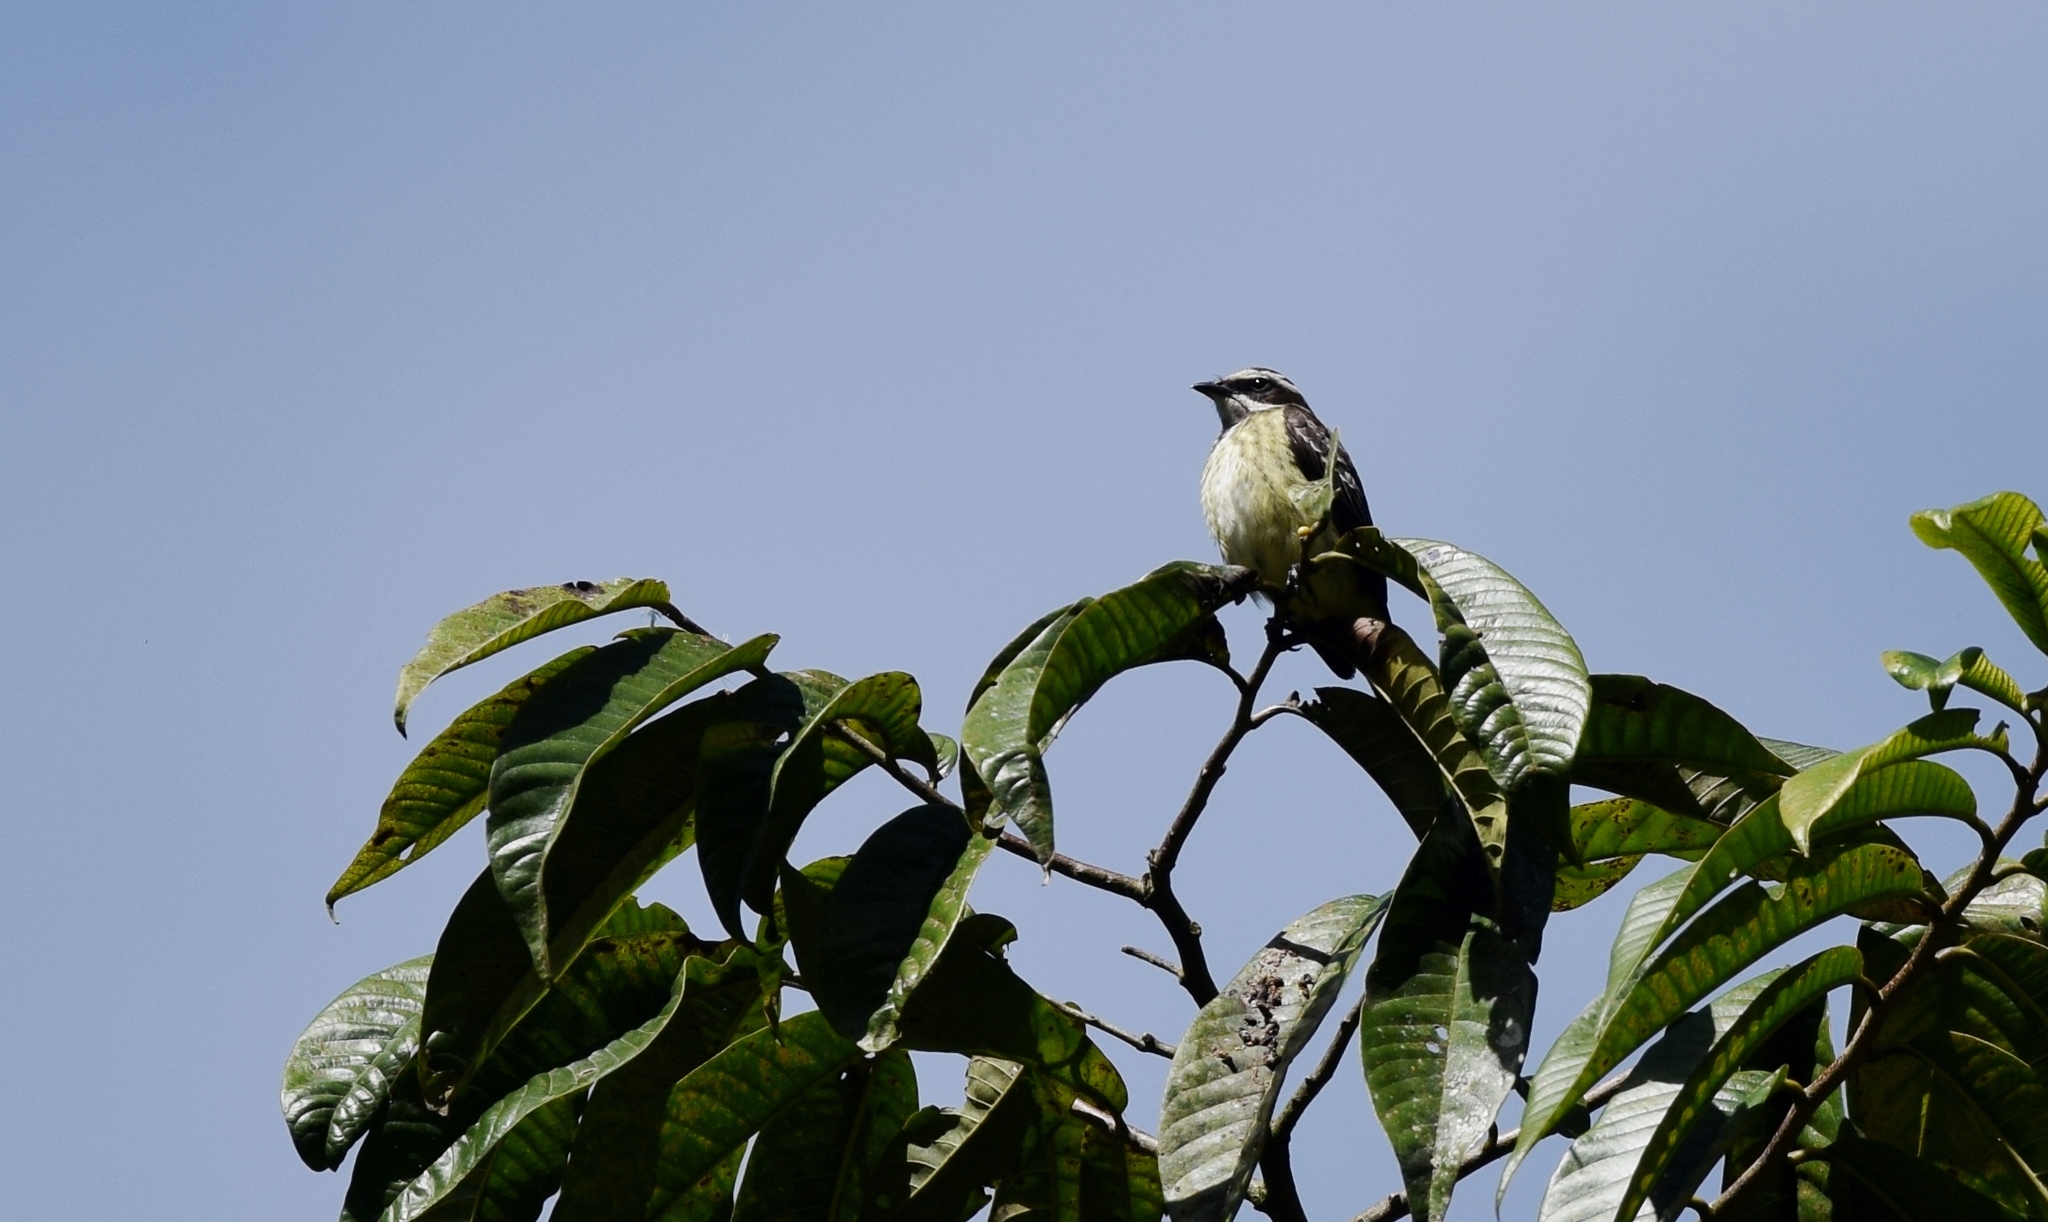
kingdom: Animalia
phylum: Chordata
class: Aves
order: Passeriformes
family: Tyrannidae
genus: Legatus
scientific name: Legatus leucophaius
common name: Piratic flycatcher
